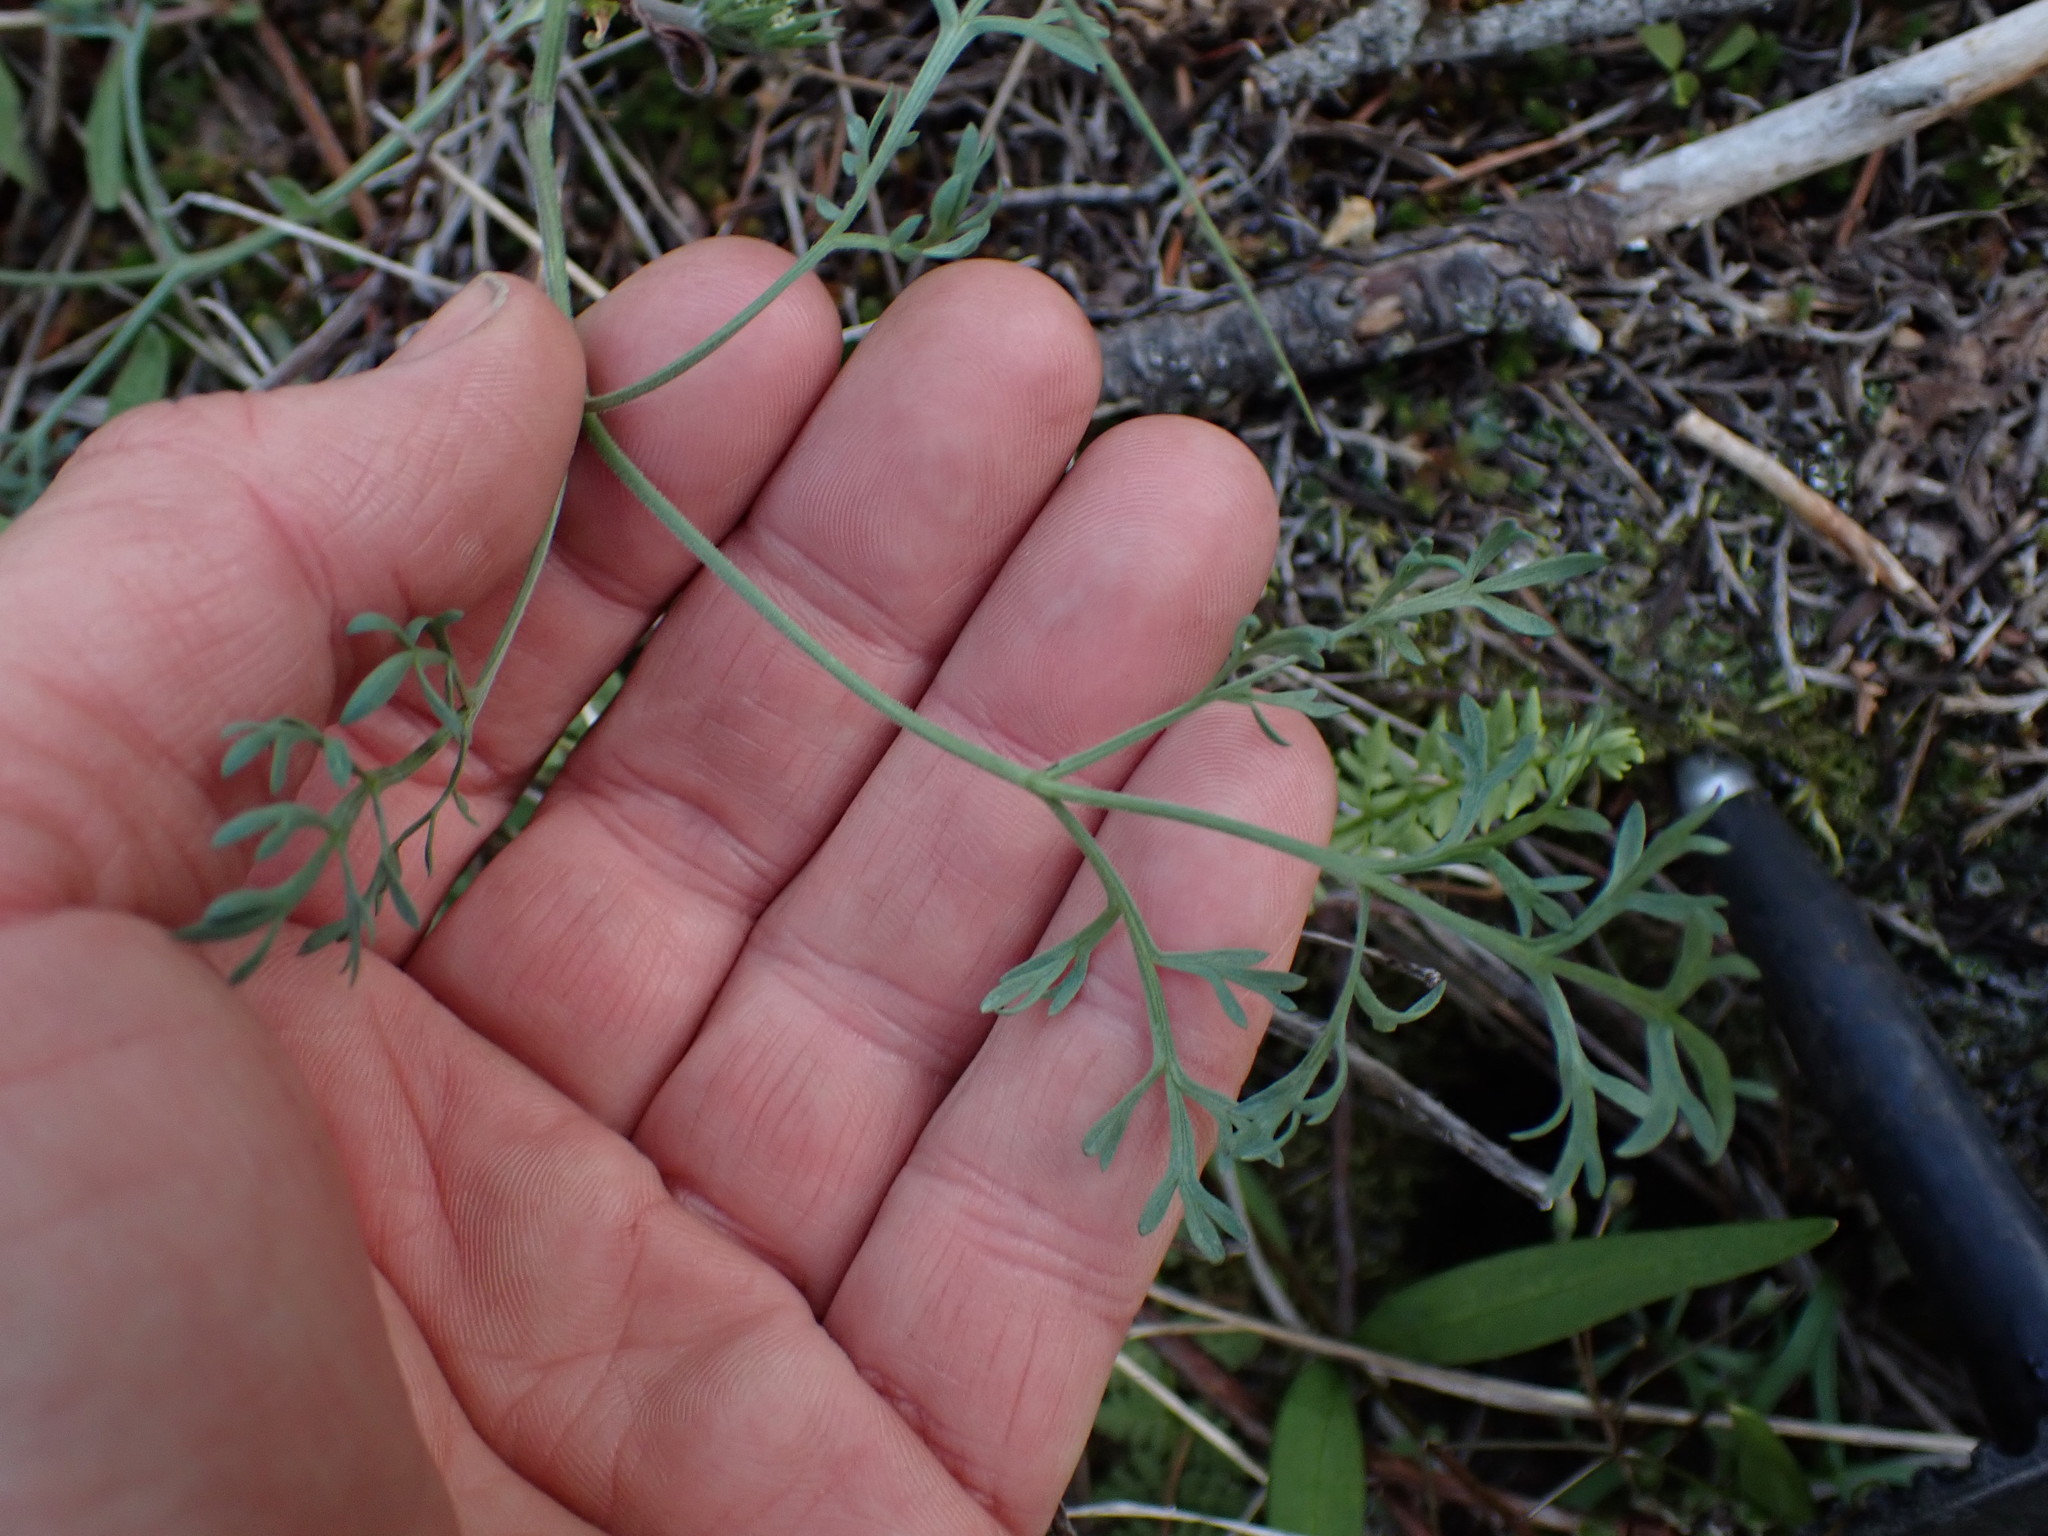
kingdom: Plantae
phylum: Tracheophyta
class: Magnoliopsida
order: Apiales
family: Apiaceae
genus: Lomatium
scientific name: Lomatium macrocarpum
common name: Big-seed biscuitroot
